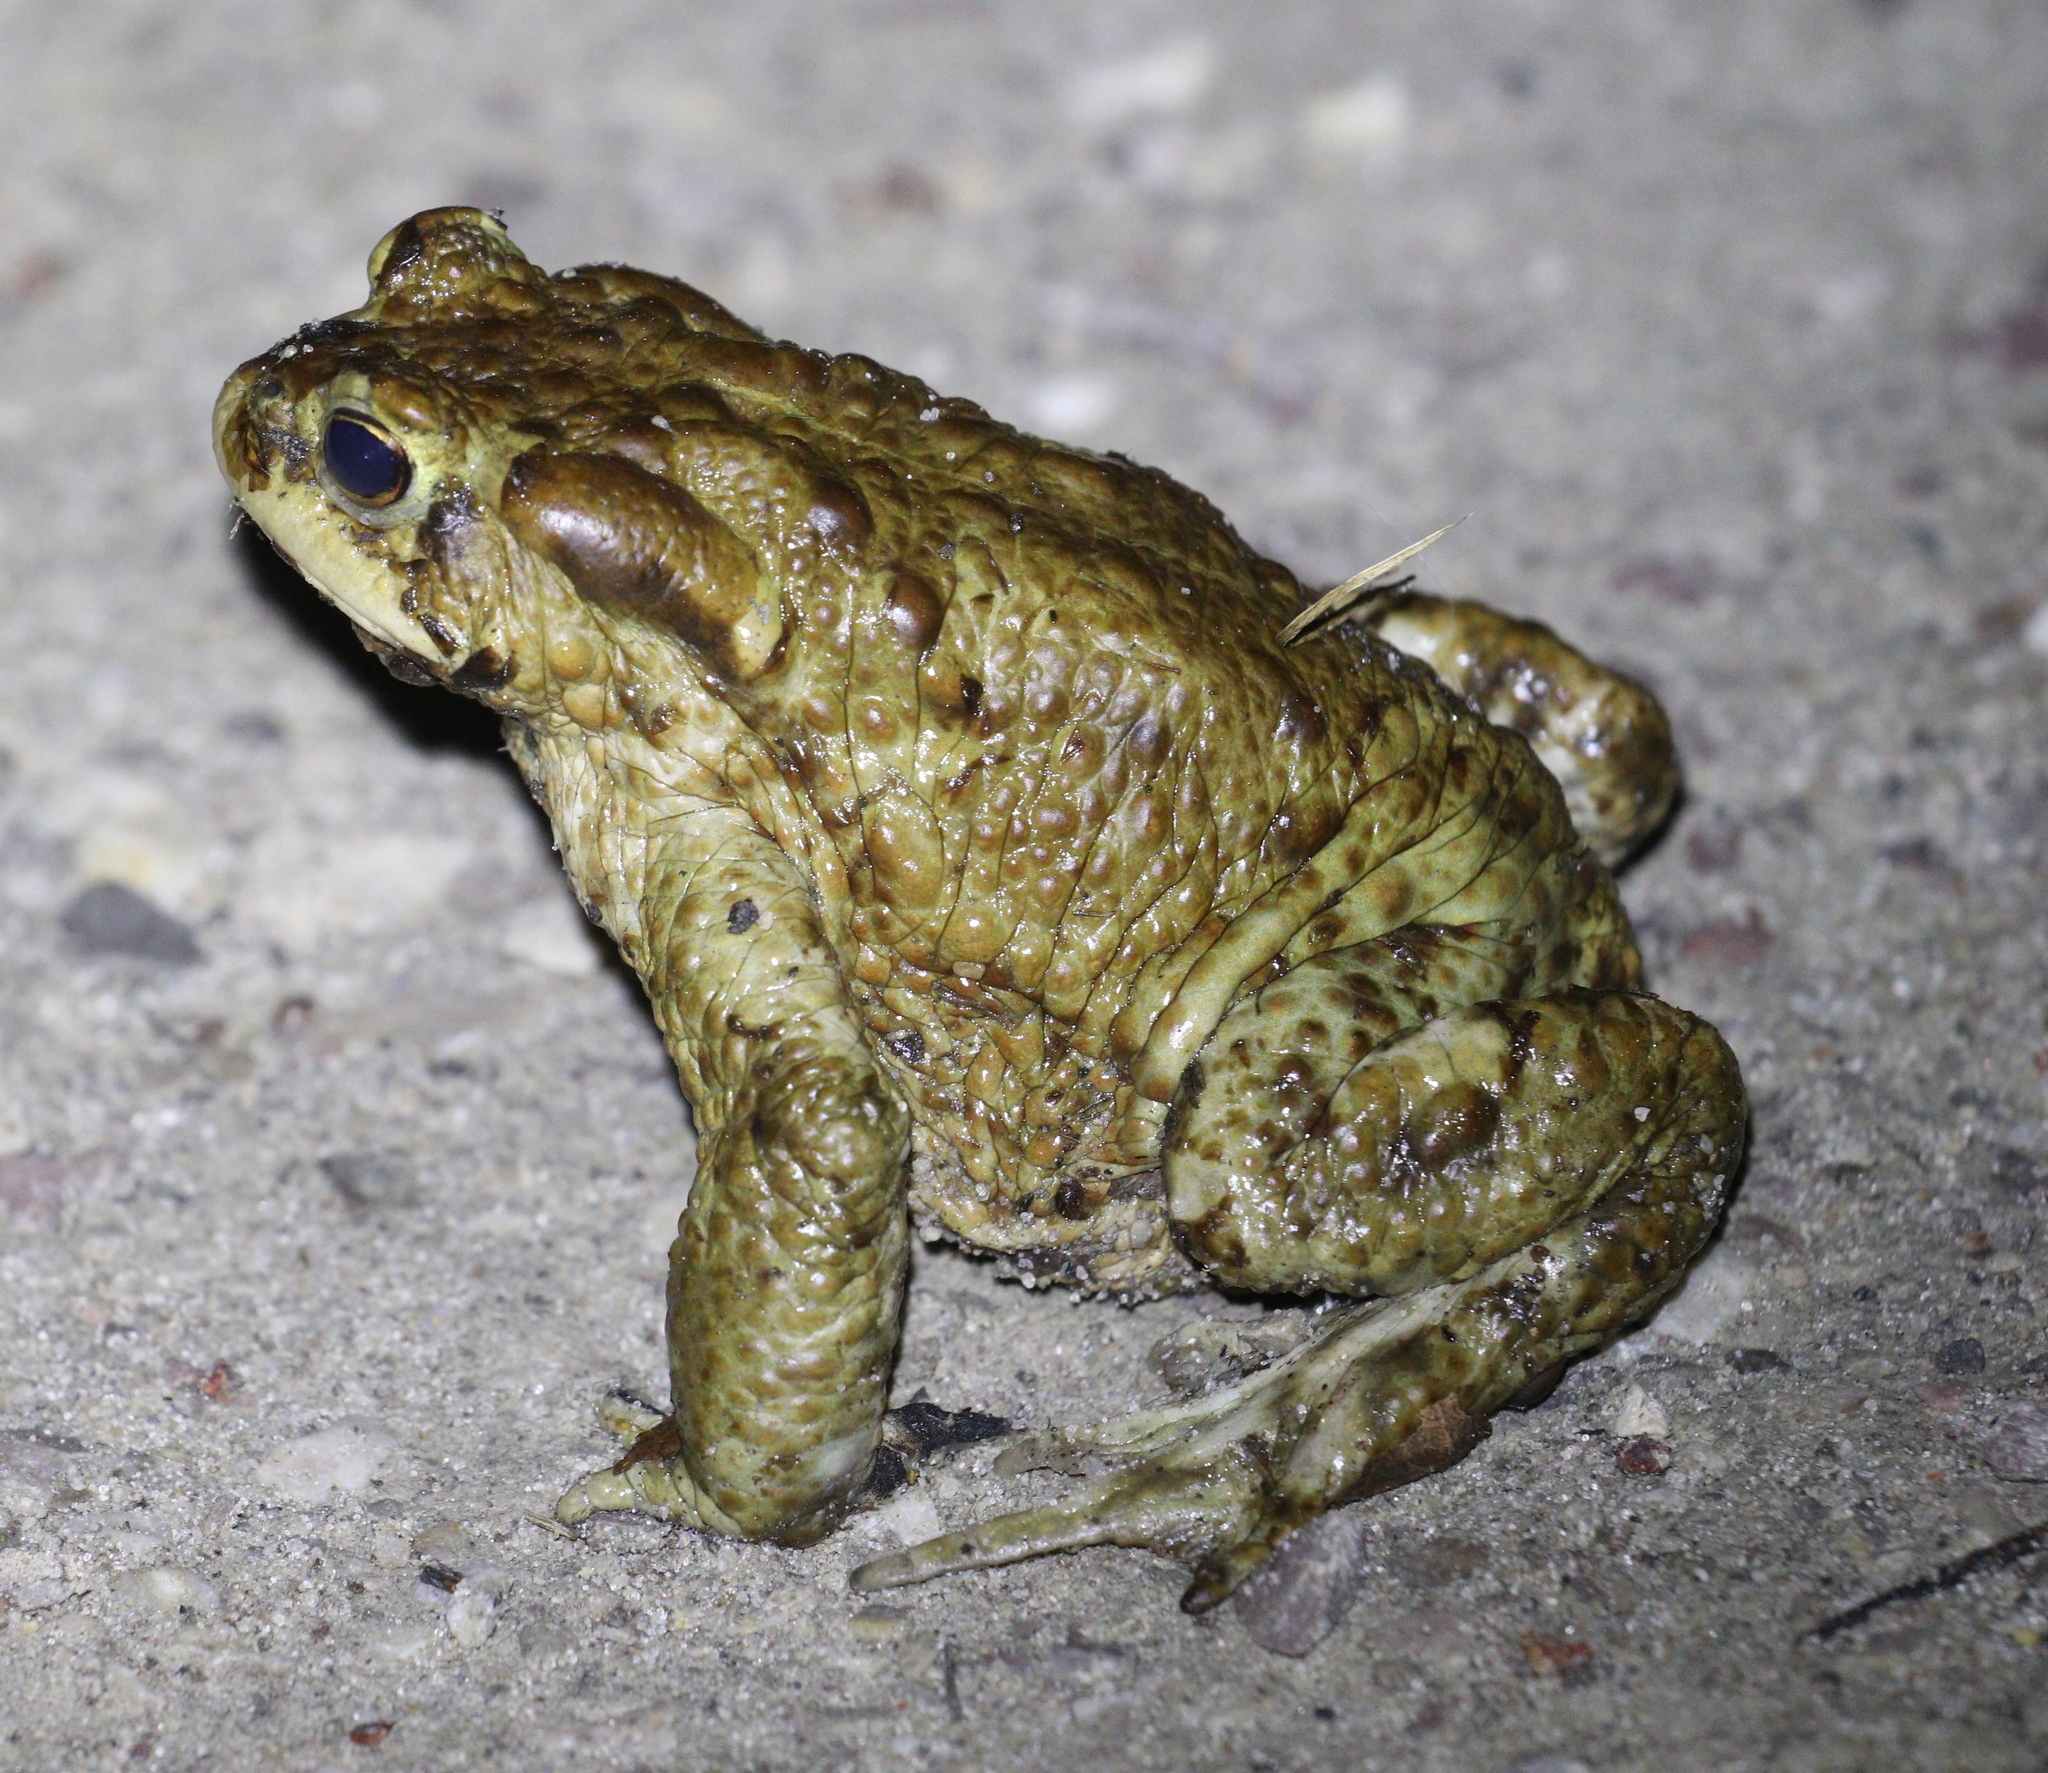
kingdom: Animalia
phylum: Chordata
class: Amphibia
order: Anura
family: Bufonidae
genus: Bufo
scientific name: Bufo bufo
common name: Common toad
